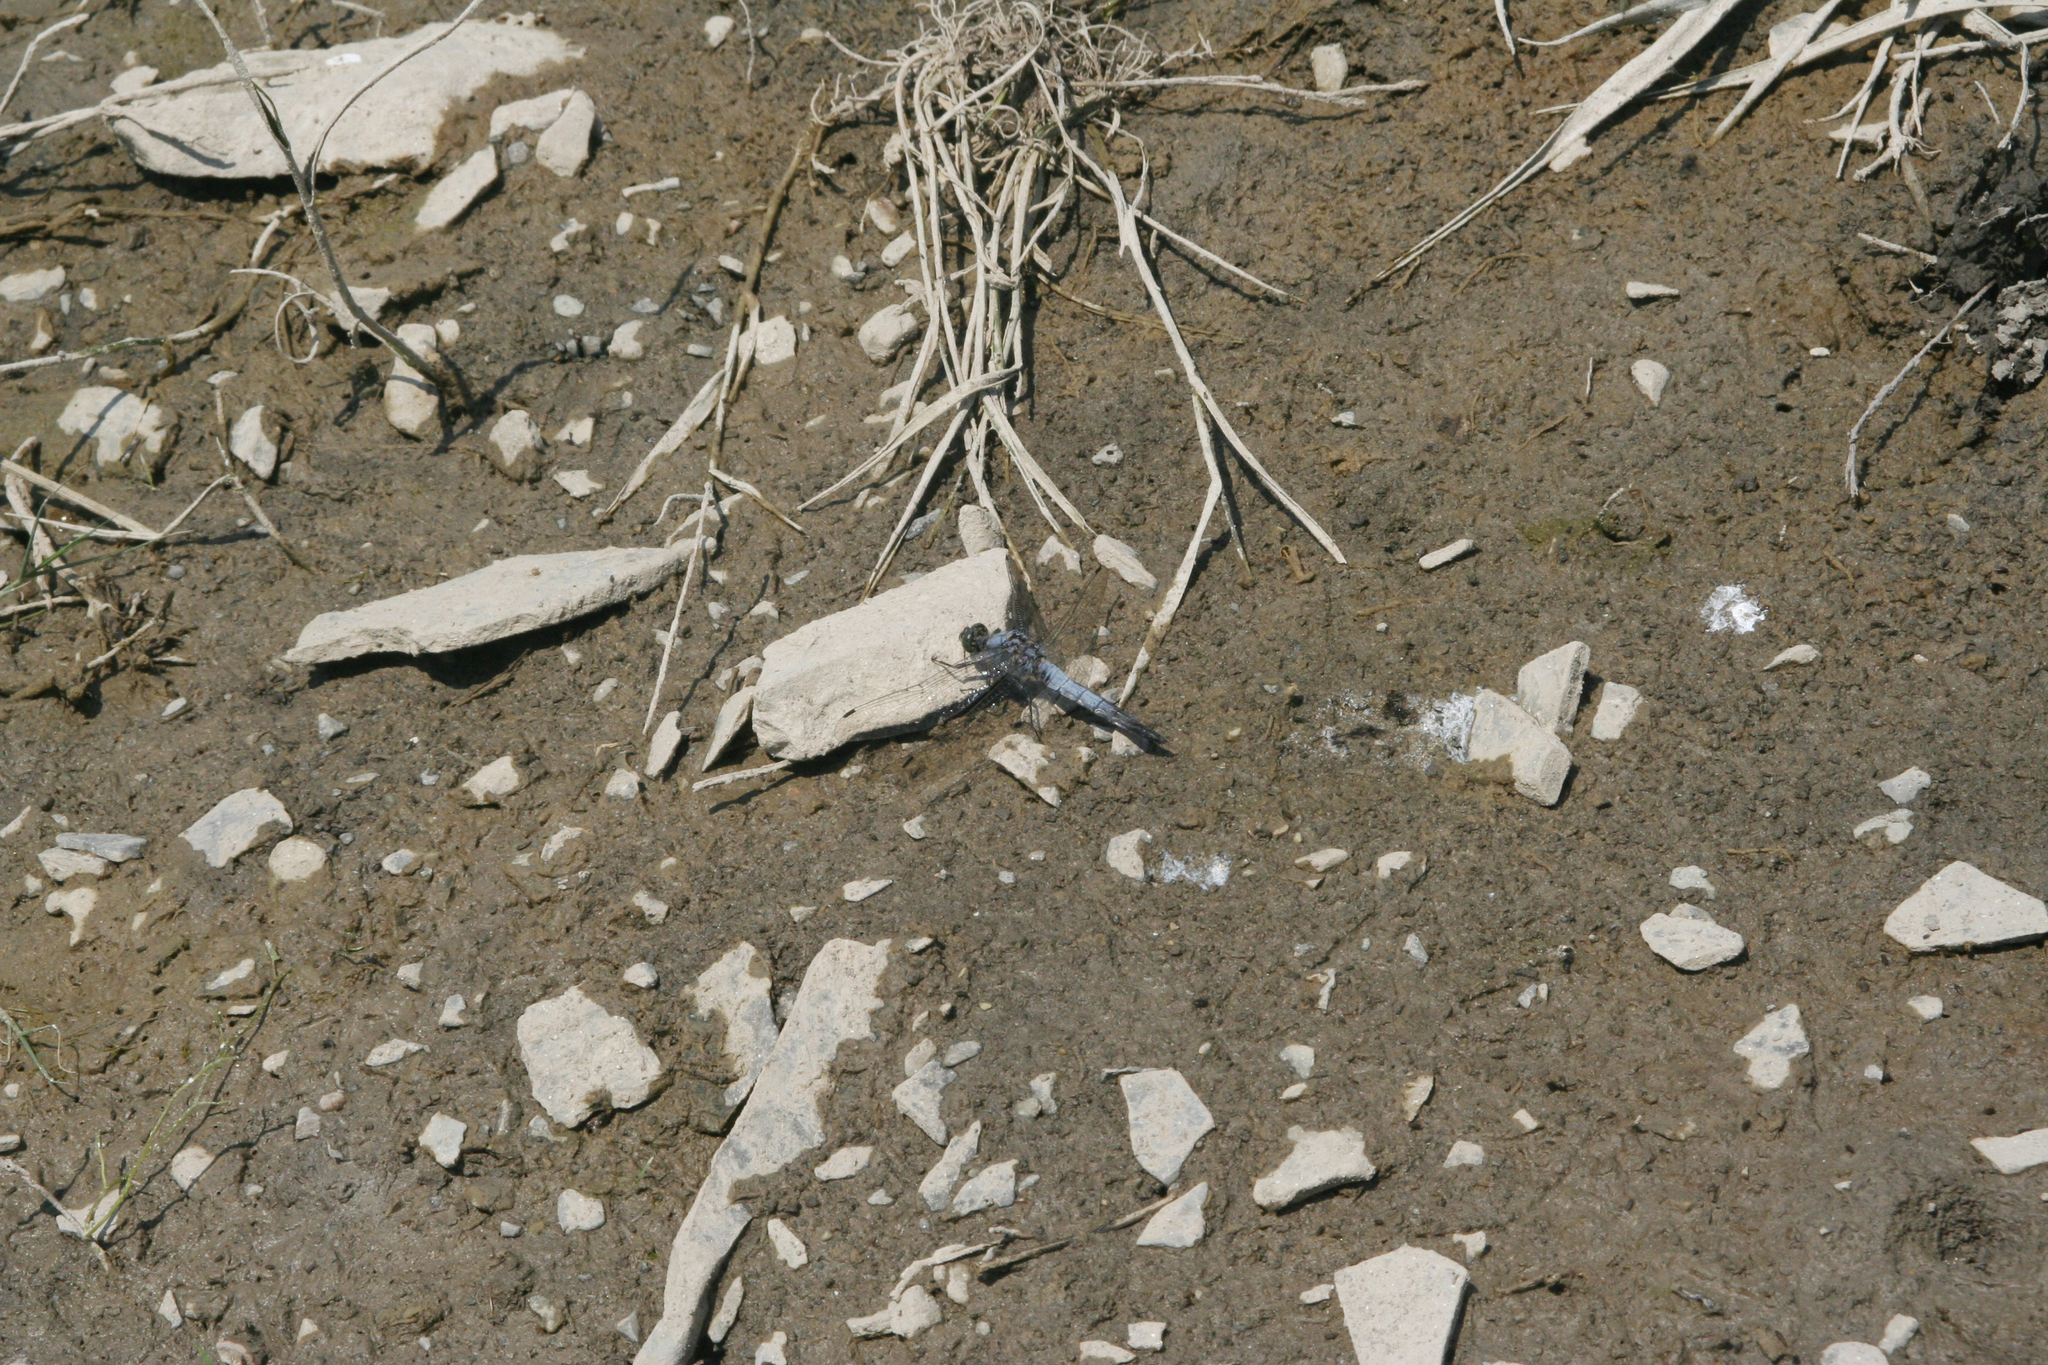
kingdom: Animalia
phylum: Arthropoda
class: Insecta
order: Odonata
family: Libellulidae
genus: Orthetrum
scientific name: Orthetrum cancellatum
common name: Black-tailed skimmer
